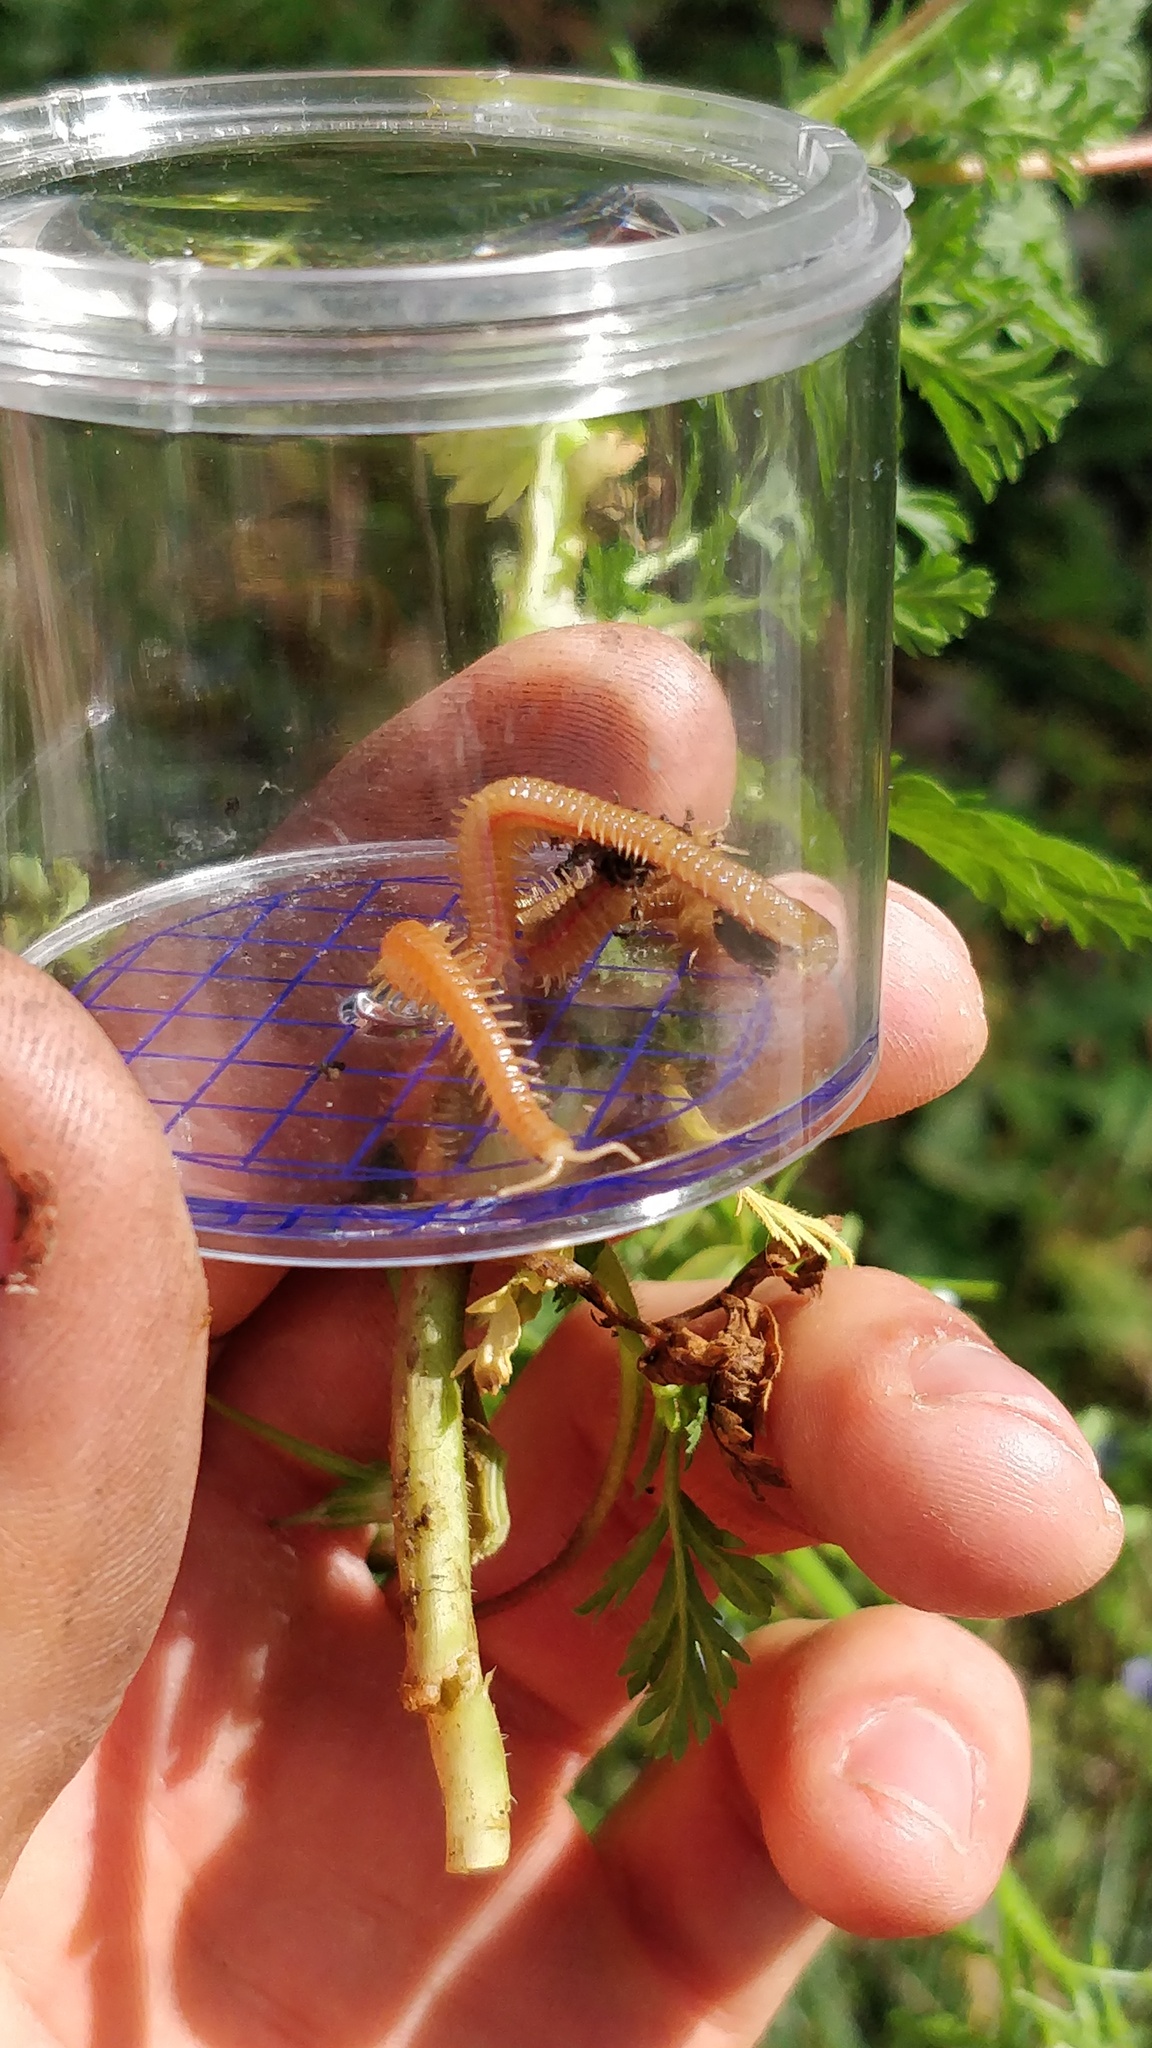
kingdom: Animalia
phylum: Arthropoda
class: Chilopoda
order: Geophilomorpha
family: Himantariidae
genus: Himantarium
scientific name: Himantarium gabrielis
